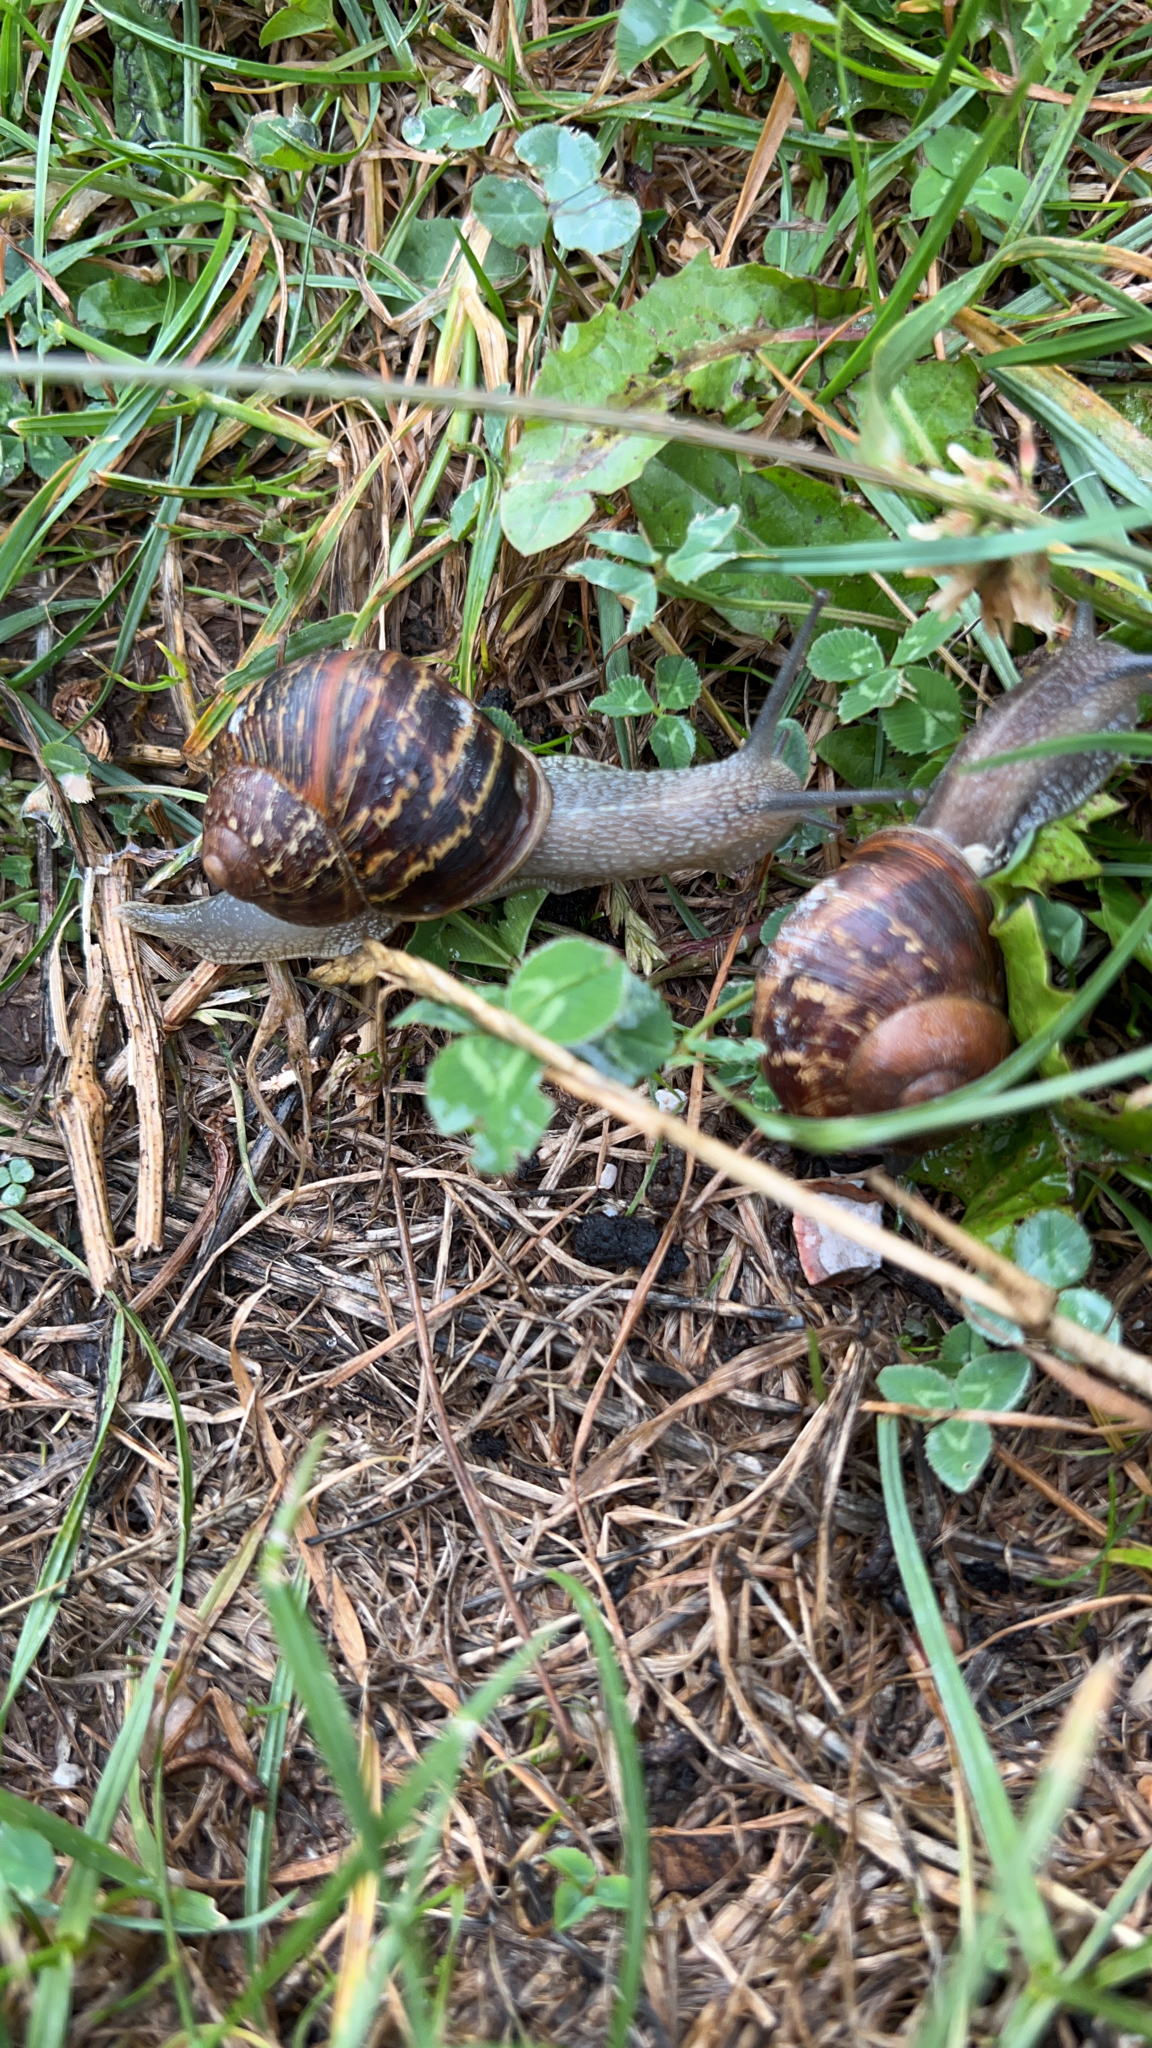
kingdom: Animalia
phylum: Mollusca
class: Gastropoda
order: Stylommatophora
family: Helicidae
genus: Cornu
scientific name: Cornu aspersum
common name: Brown garden snail
